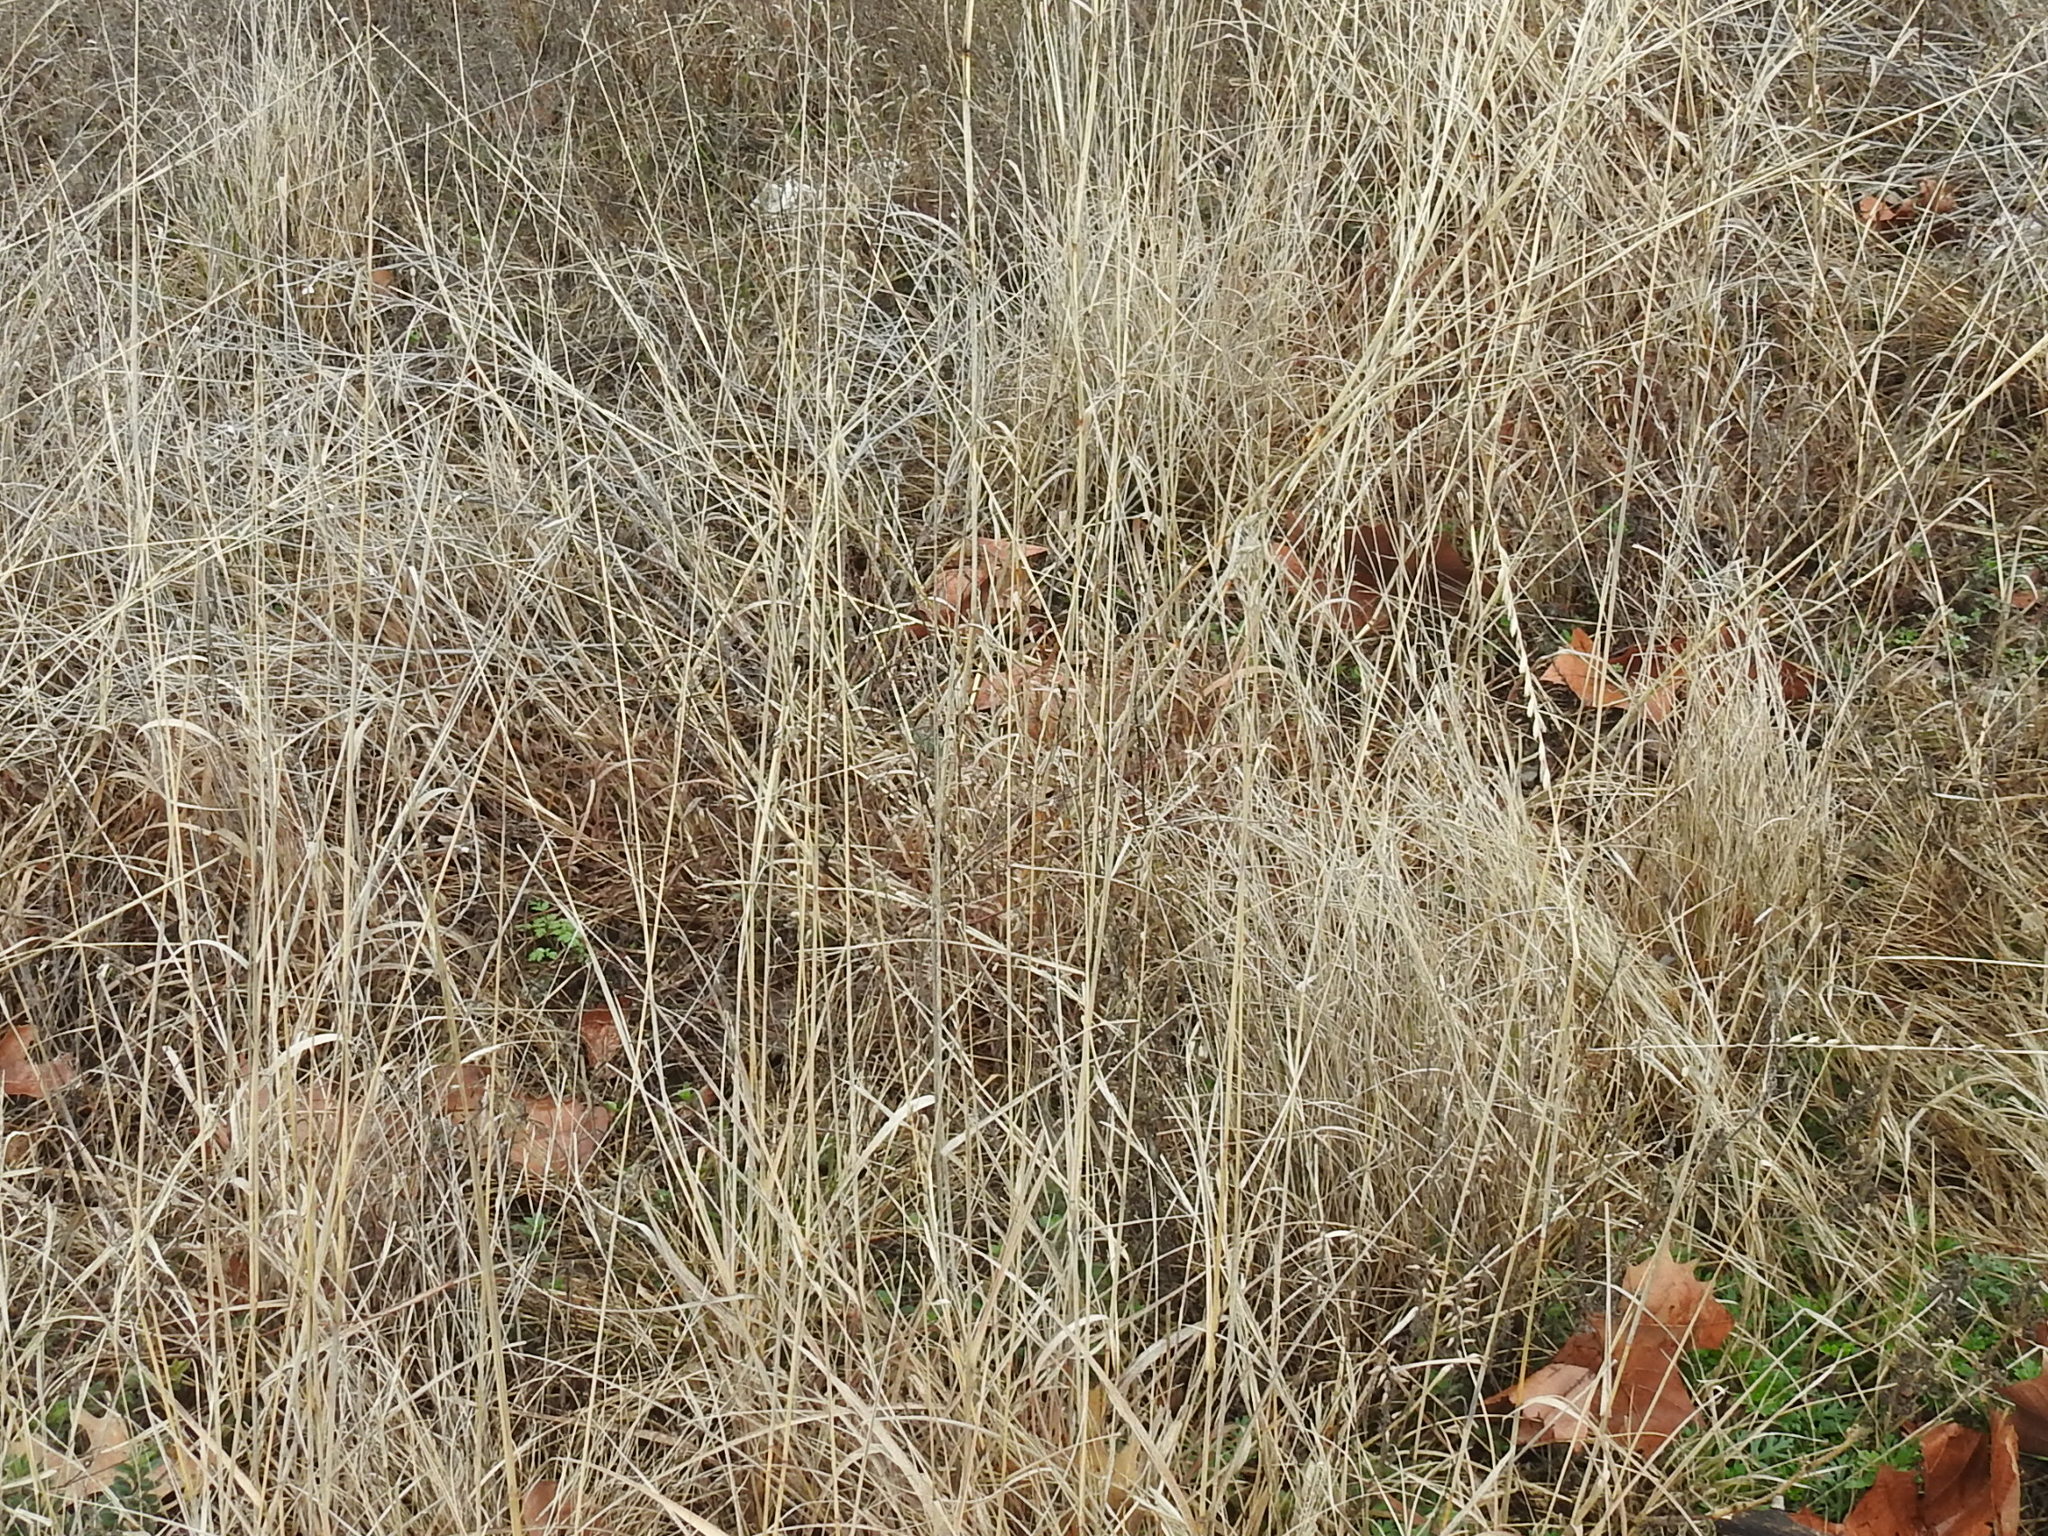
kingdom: Plantae
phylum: Tracheophyta
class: Liliopsida
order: Poales
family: Poaceae
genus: Bouteloua
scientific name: Bouteloua curtipendula
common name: Side-oats grama
